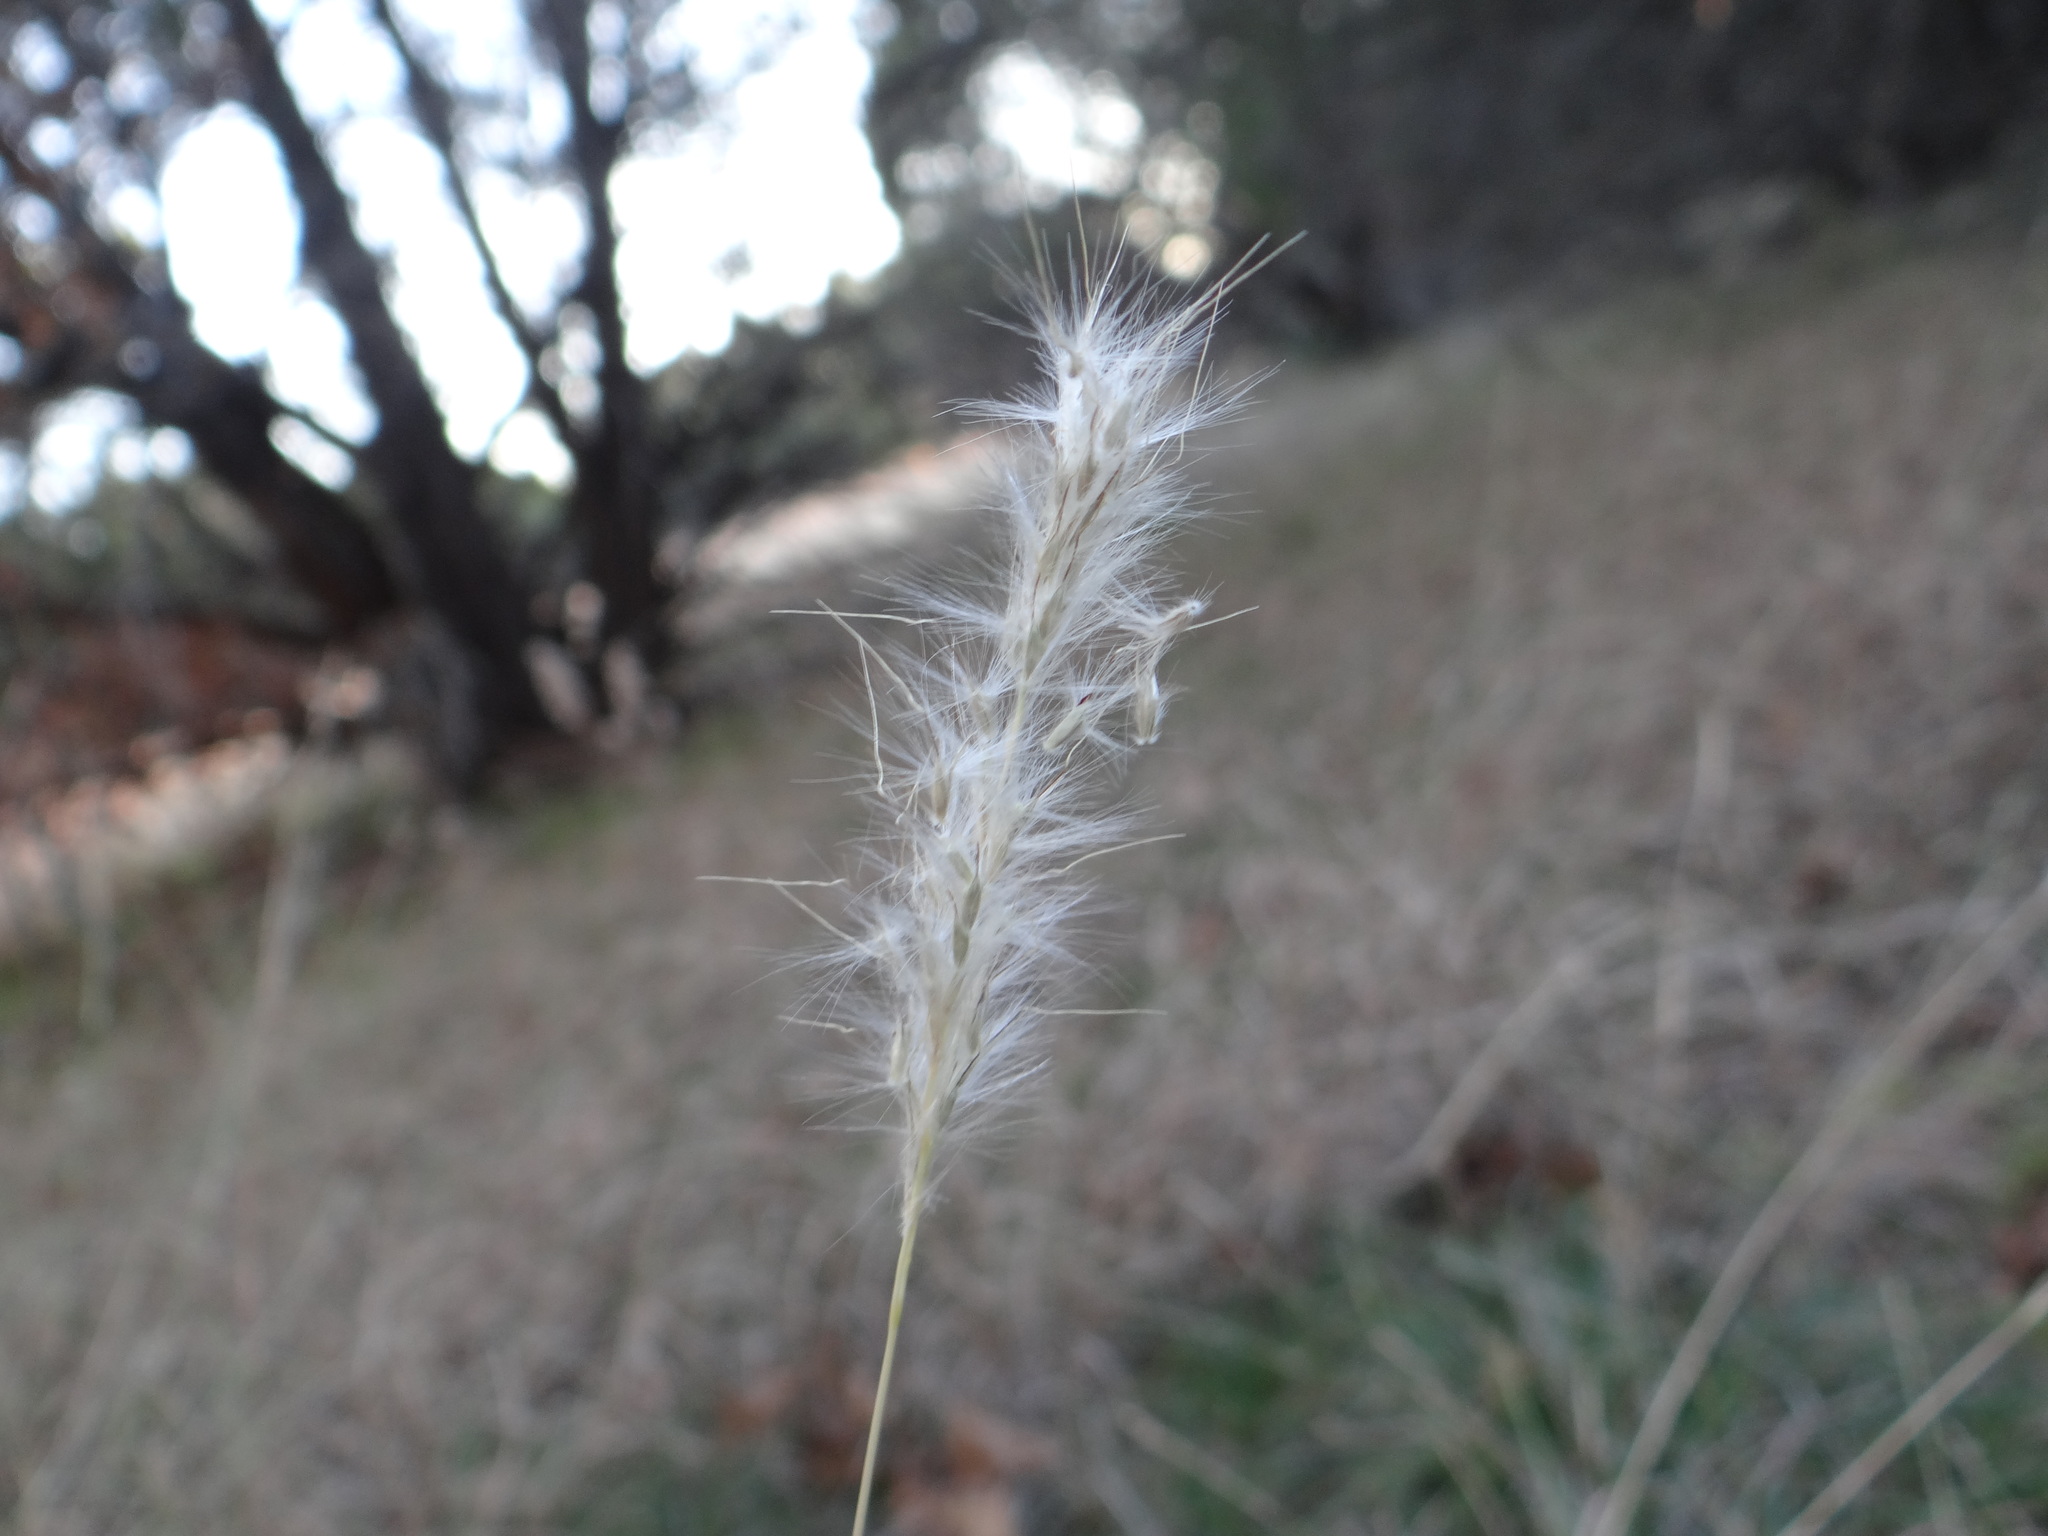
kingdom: Plantae
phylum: Tracheophyta
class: Liliopsida
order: Poales
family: Poaceae
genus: Bothriochloa
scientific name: Bothriochloa torreyana
